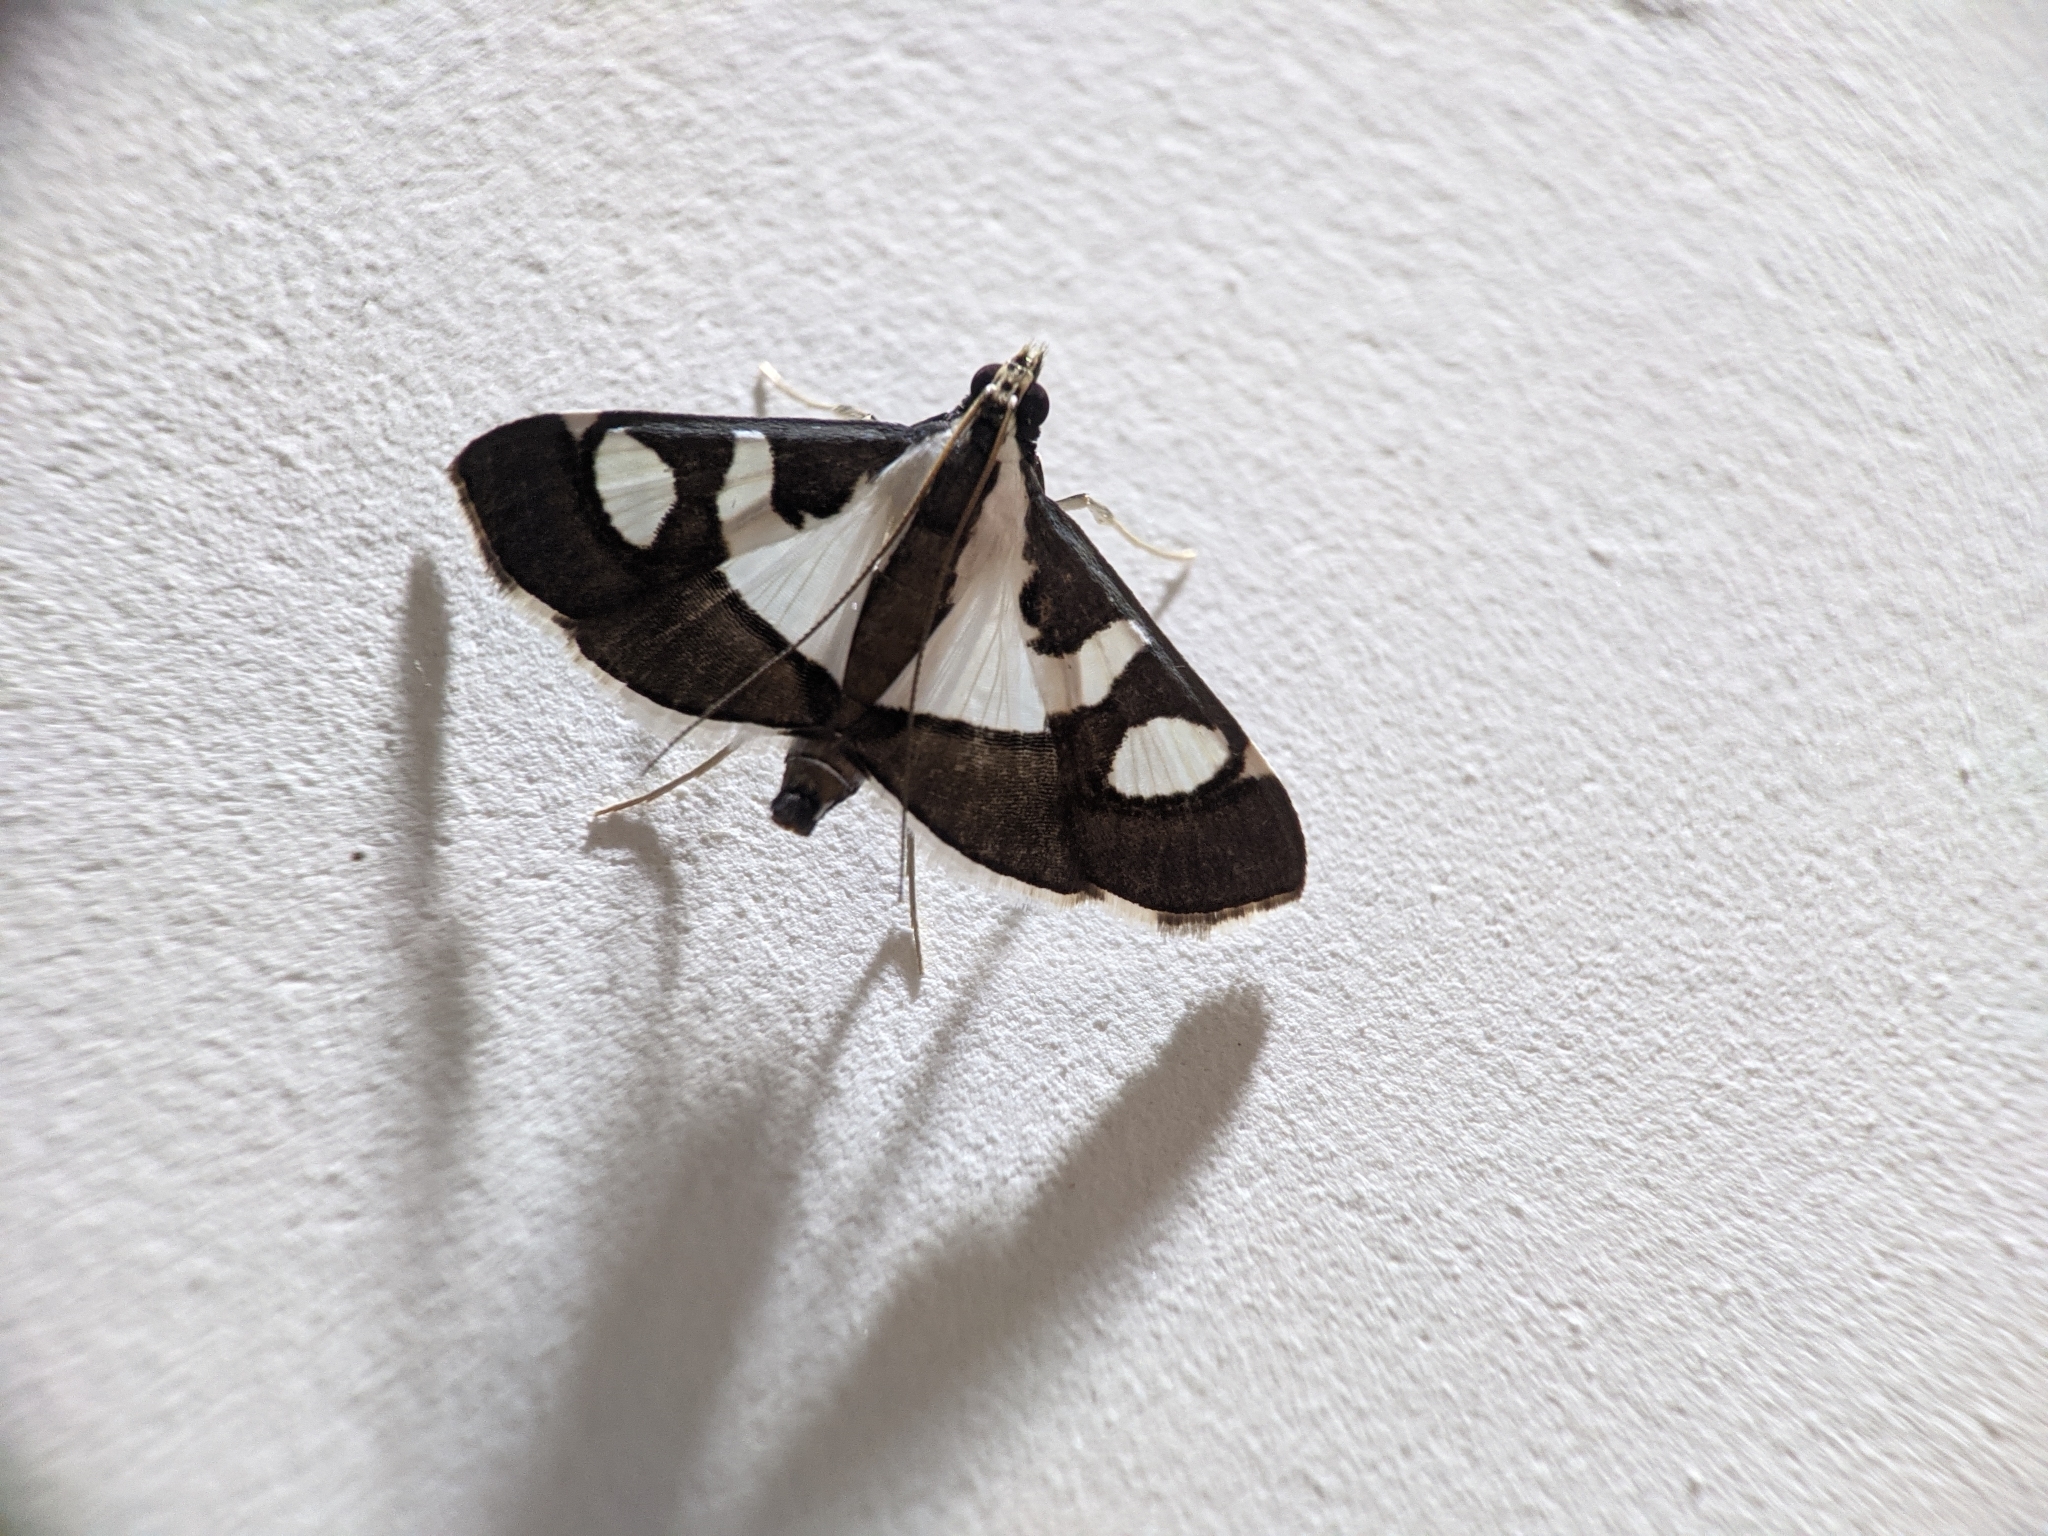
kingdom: Animalia
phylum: Arthropoda
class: Insecta
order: Lepidoptera
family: Crambidae
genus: Glyphodes
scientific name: Glyphodes bicolor
